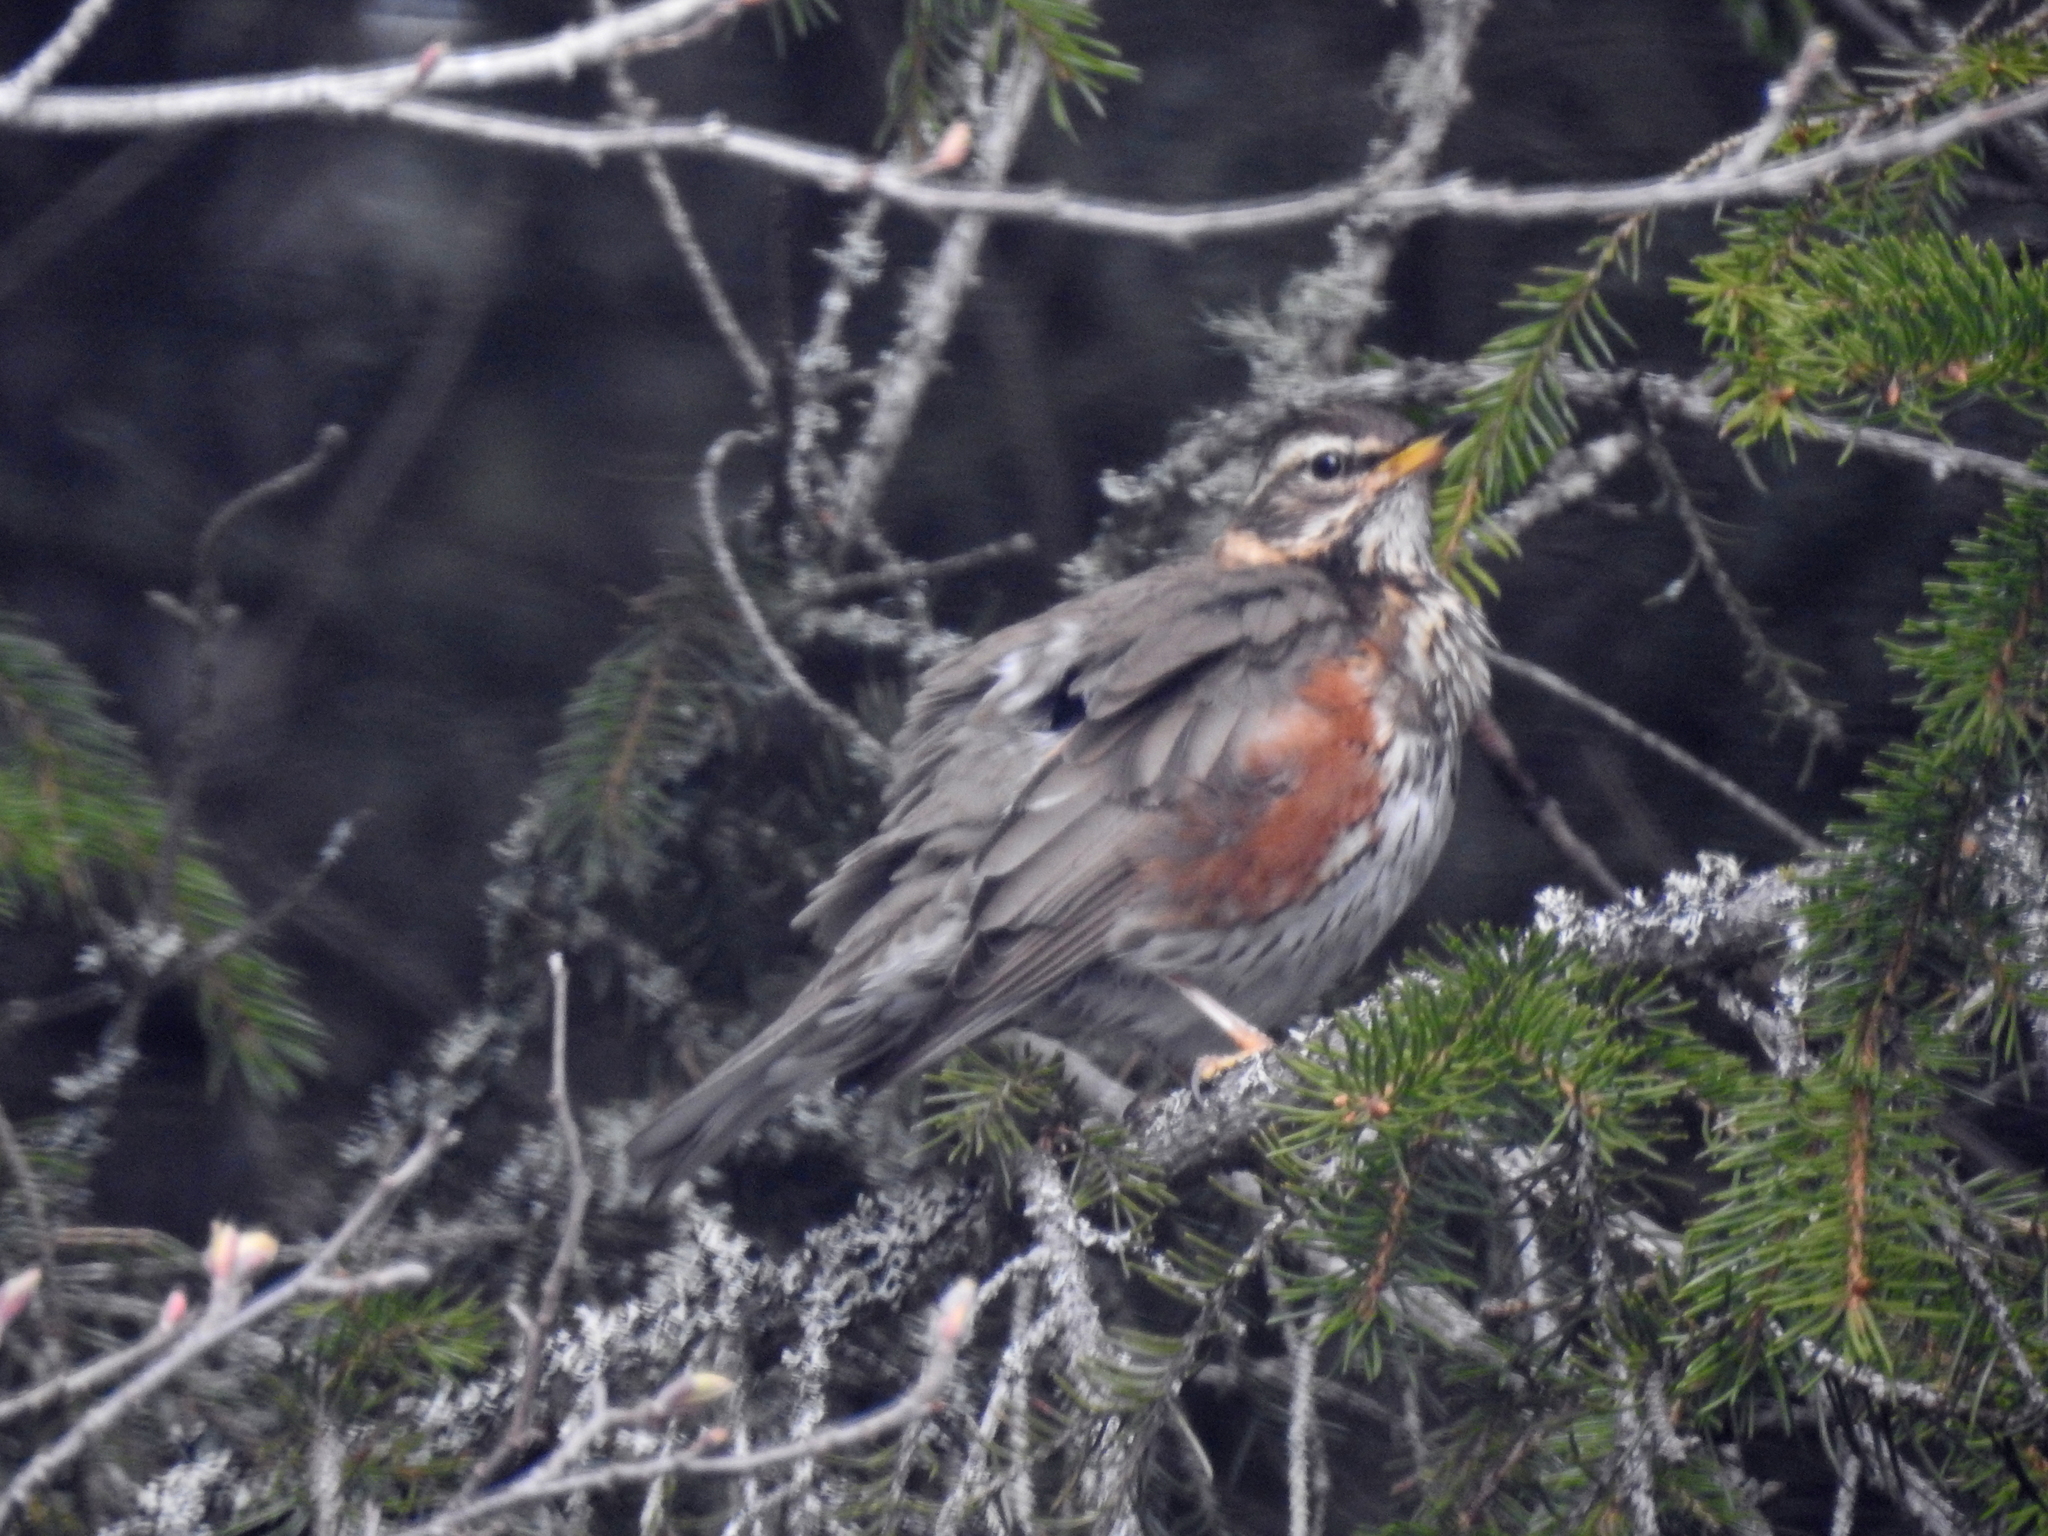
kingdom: Animalia
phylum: Chordata
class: Aves
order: Passeriformes
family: Turdidae
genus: Turdus
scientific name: Turdus iliacus
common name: Redwing
